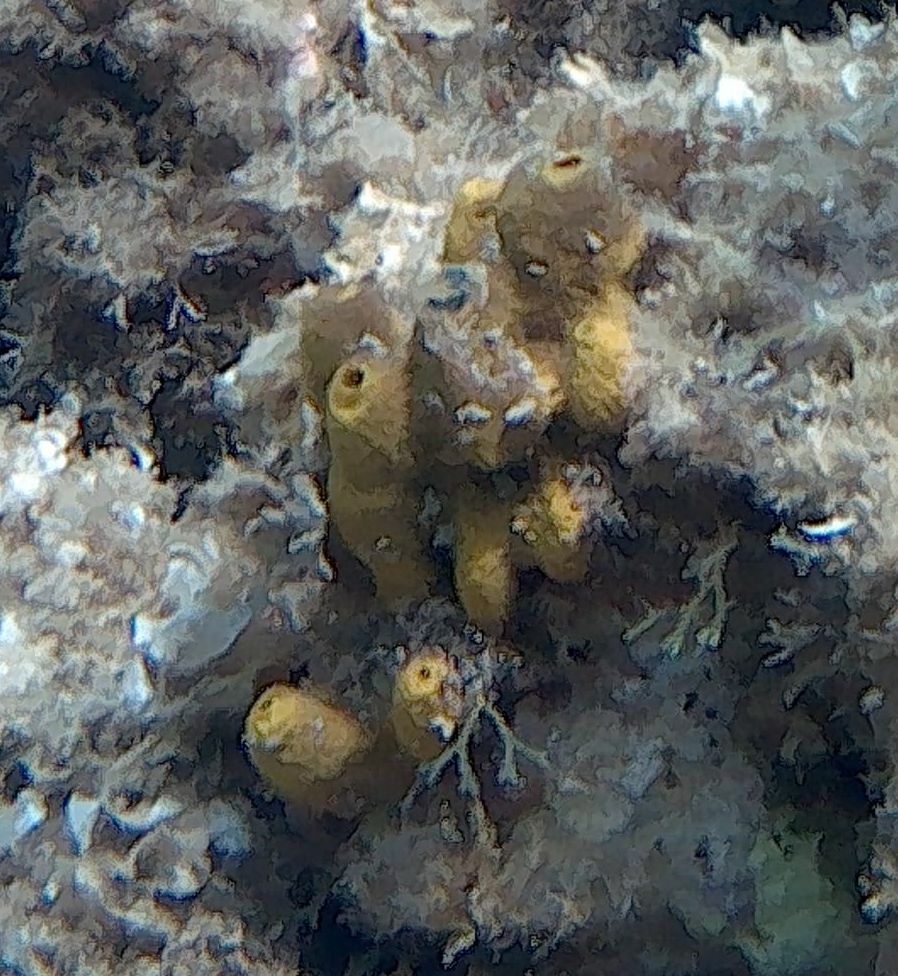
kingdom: Animalia
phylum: Porifera
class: Demospongiae
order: Verongiida
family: Aplysinidae
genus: Aplysina
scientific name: Aplysina aerophoba
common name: Aureate sponge
